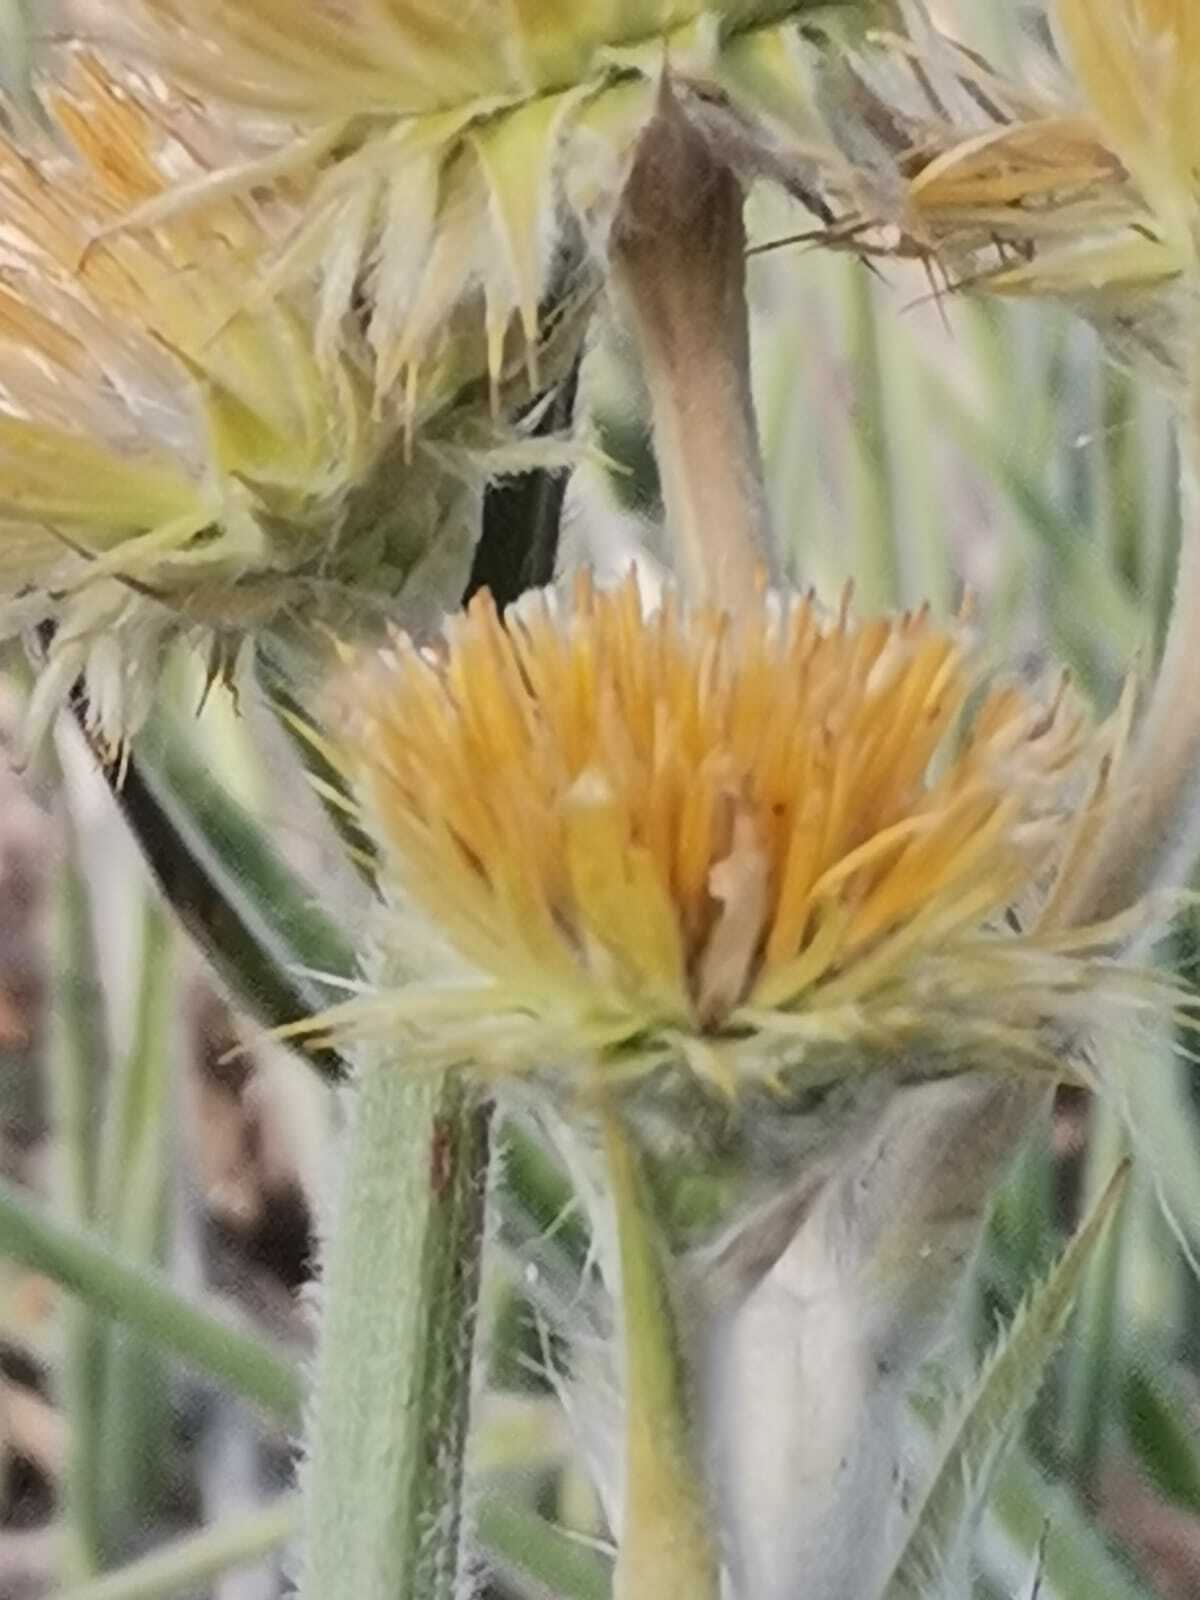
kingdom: Plantae
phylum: Tracheophyta
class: Magnoliopsida
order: Asterales
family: Asteraceae
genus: Schlechtendalia
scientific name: Schlechtendalia luzulifolia
